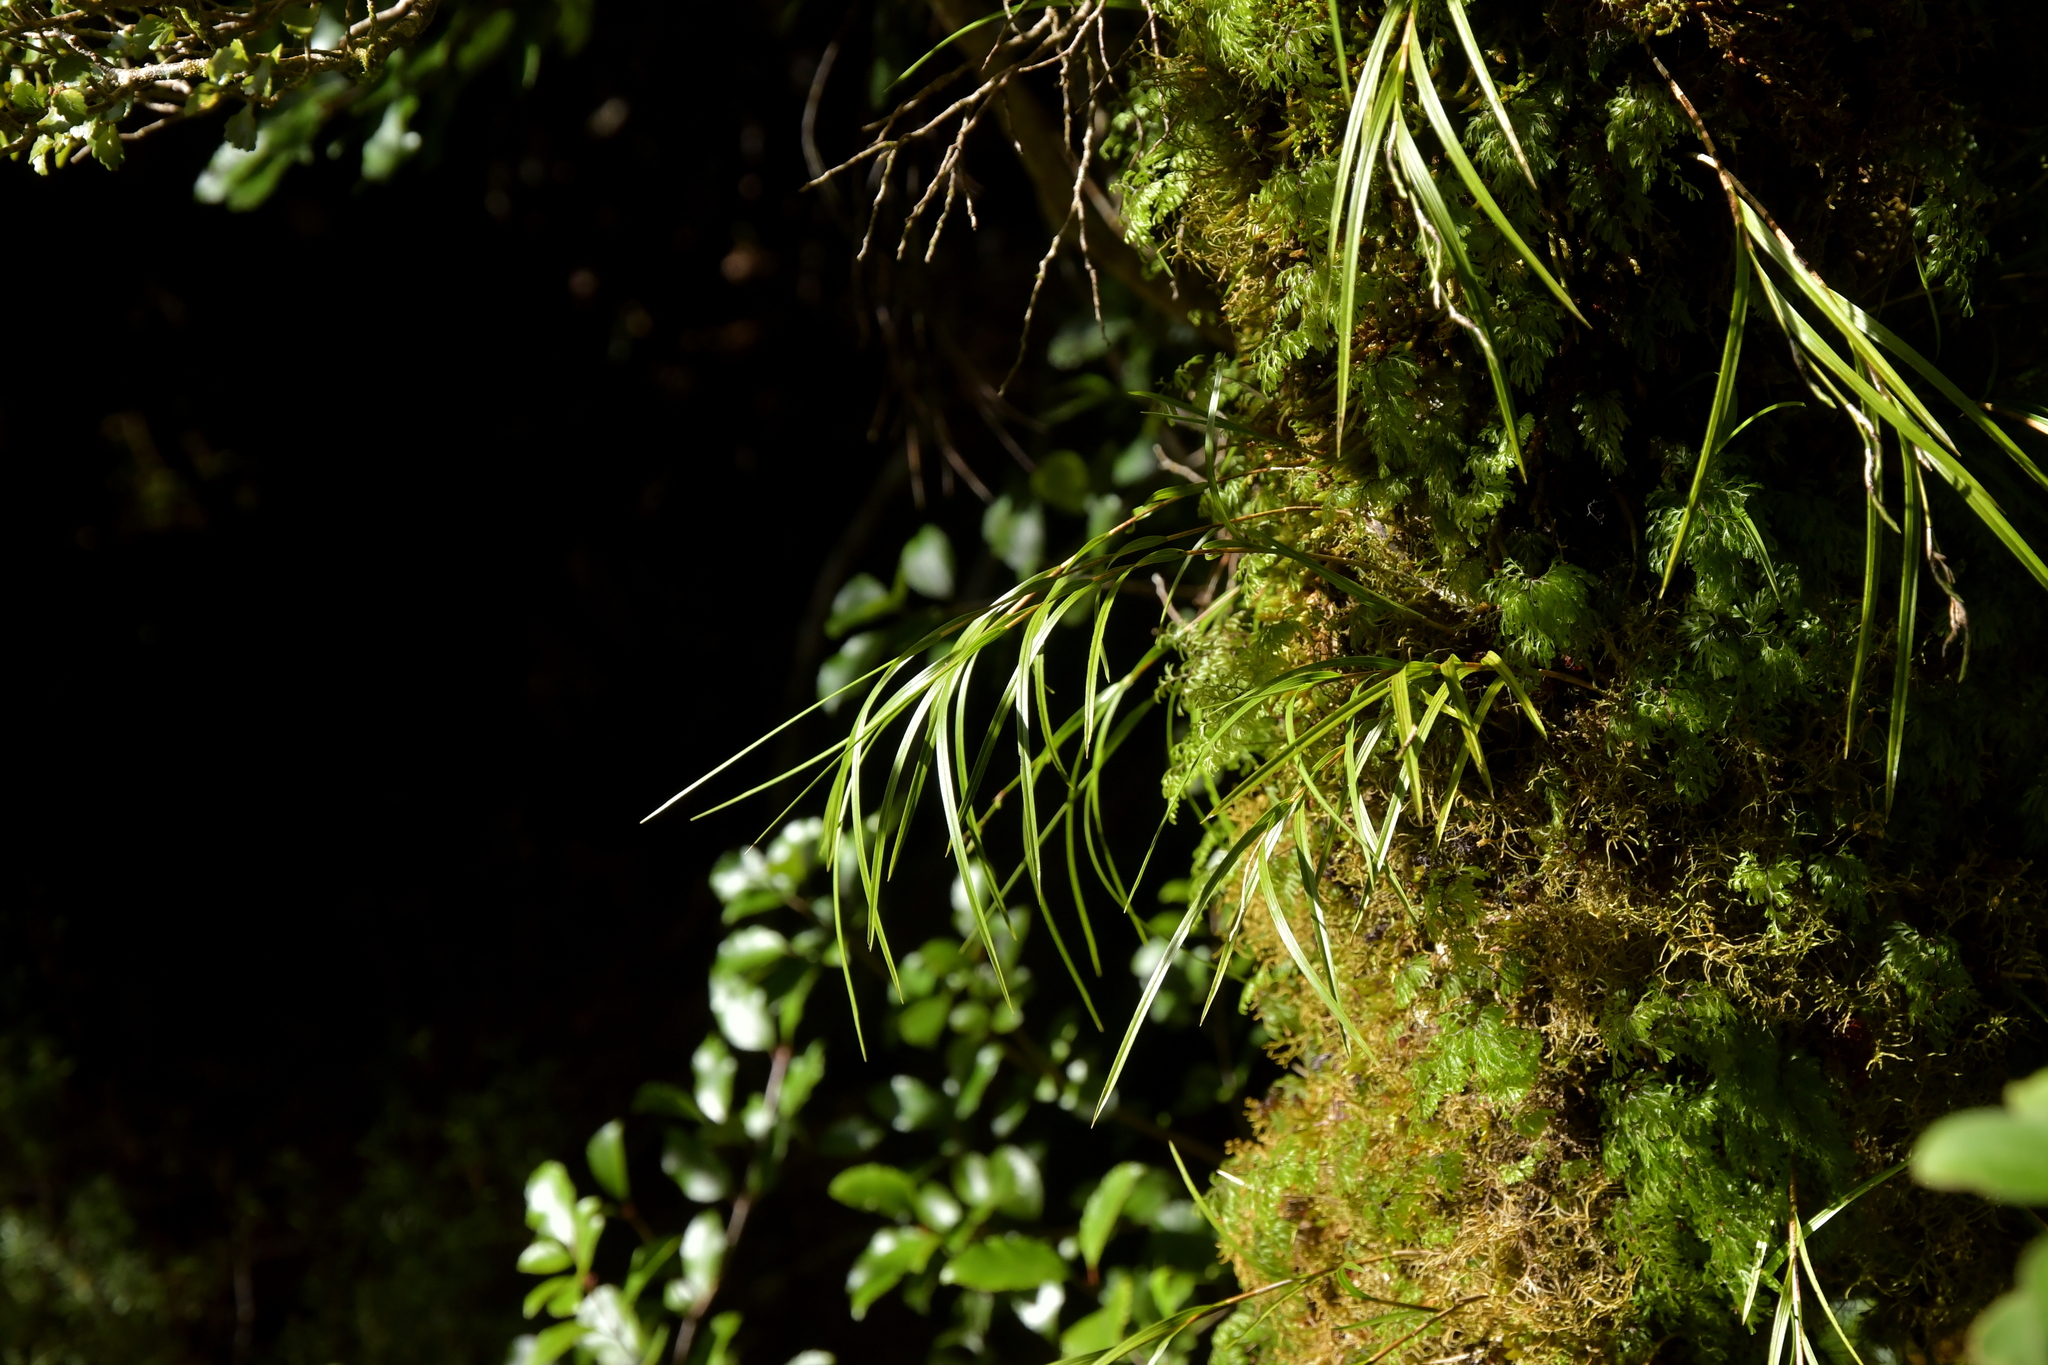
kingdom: Plantae
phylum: Tracheophyta
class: Liliopsida
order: Asparagales
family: Orchidaceae
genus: Earina
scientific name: Earina mucronata
